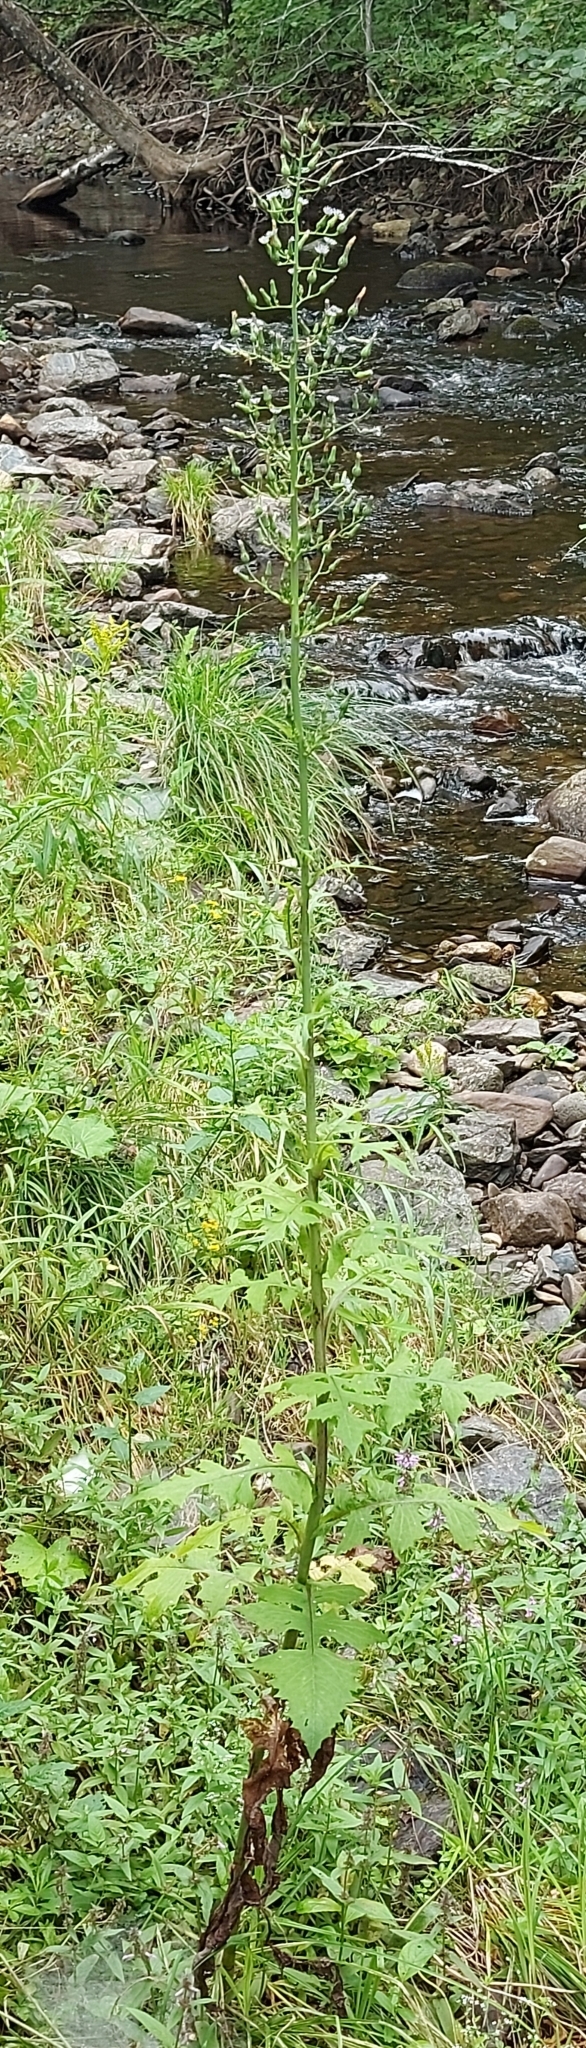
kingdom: Plantae
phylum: Tracheophyta
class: Magnoliopsida
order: Asterales
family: Asteraceae
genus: Lactuca
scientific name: Lactuca biennis
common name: Blue wood lettuce
